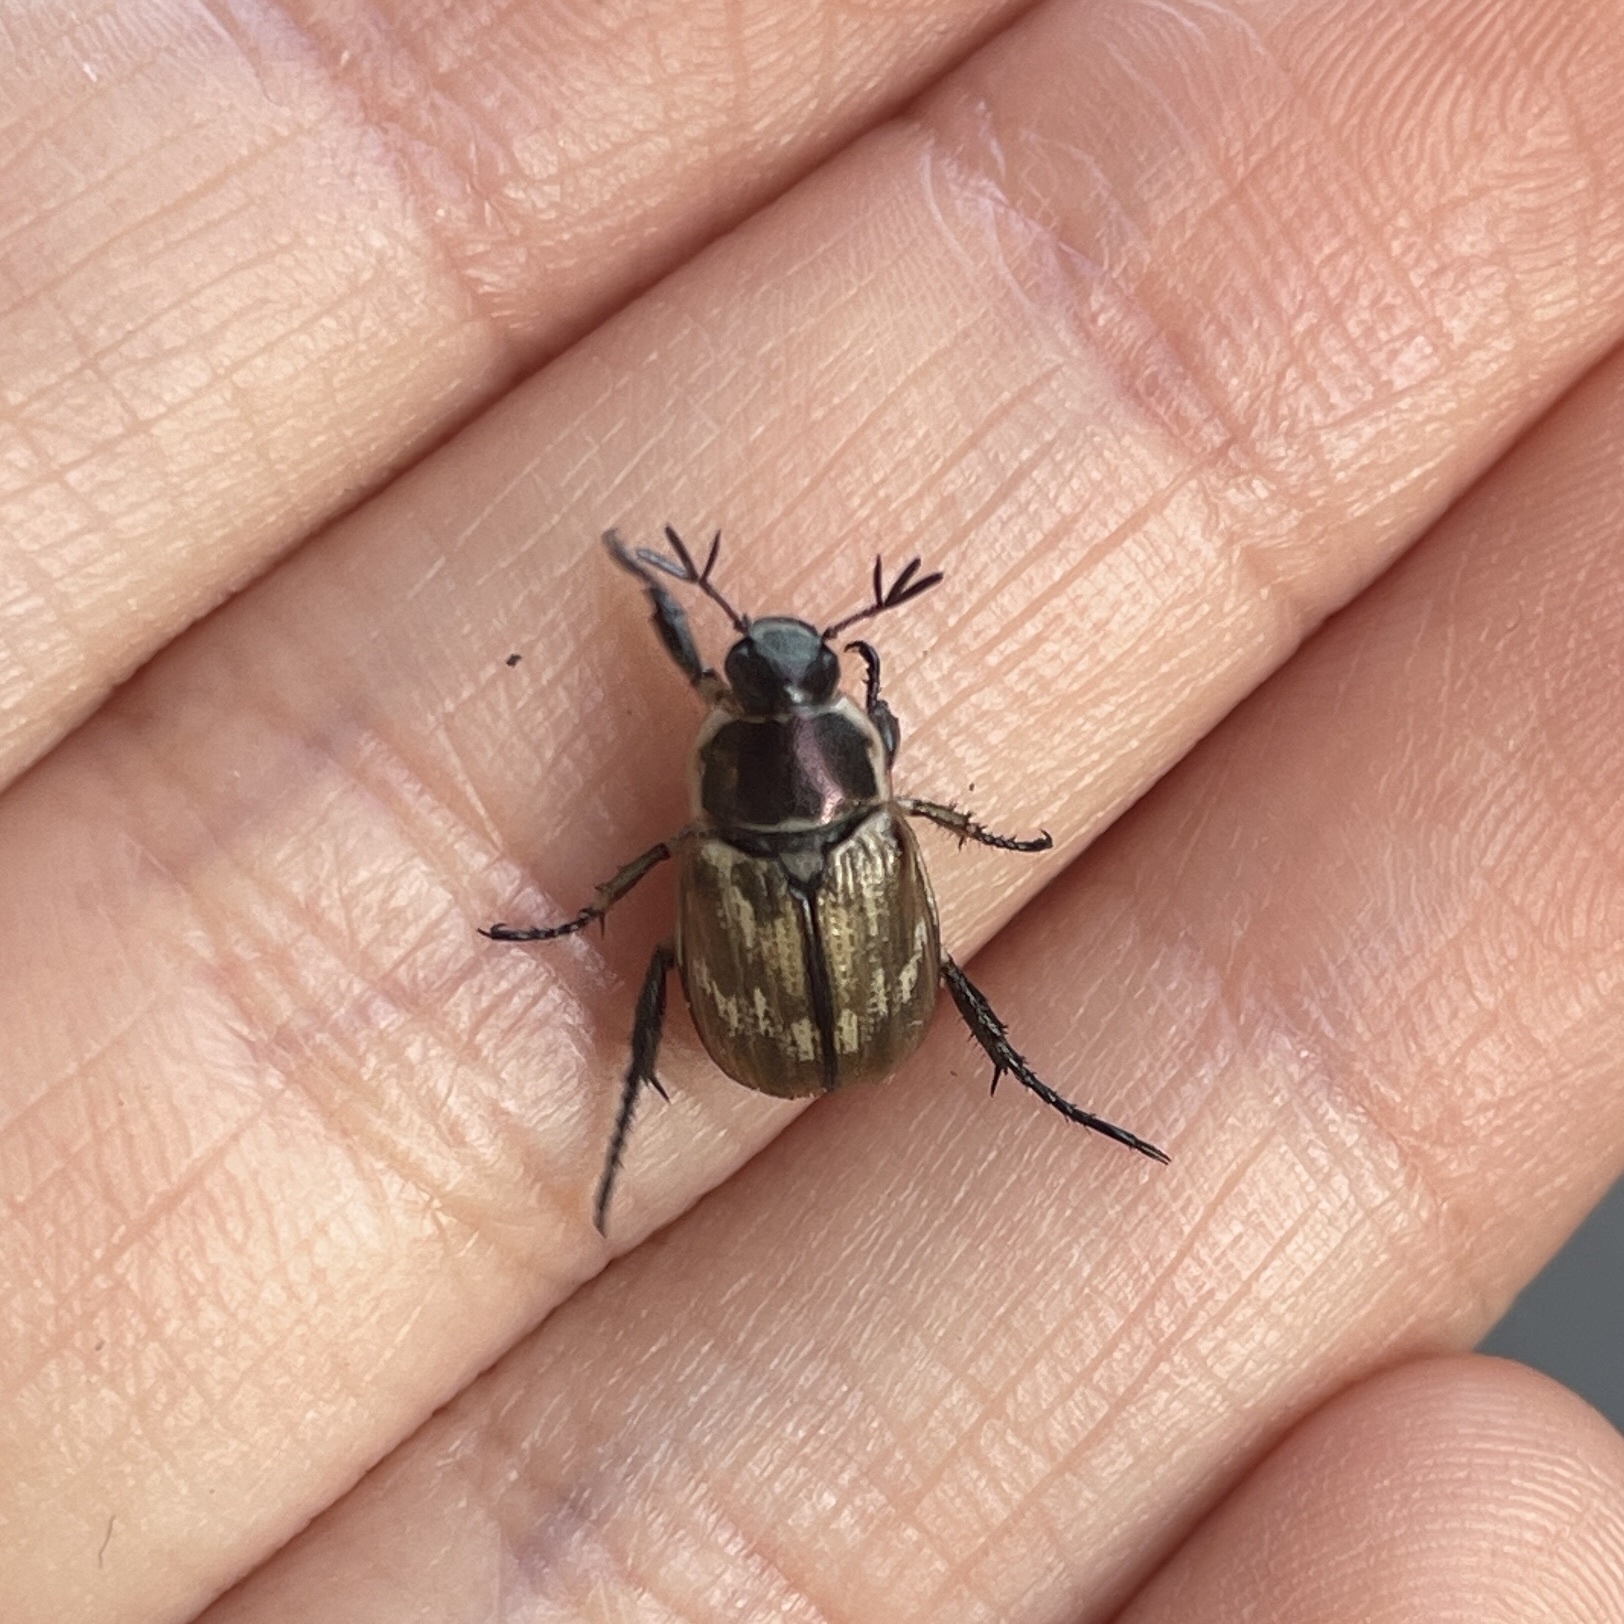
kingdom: Animalia
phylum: Arthropoda
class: Insecta
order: Coleoptera
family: Scarabaeidae
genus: Exomala
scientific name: Exomala orientalis
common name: Oriental beetle
